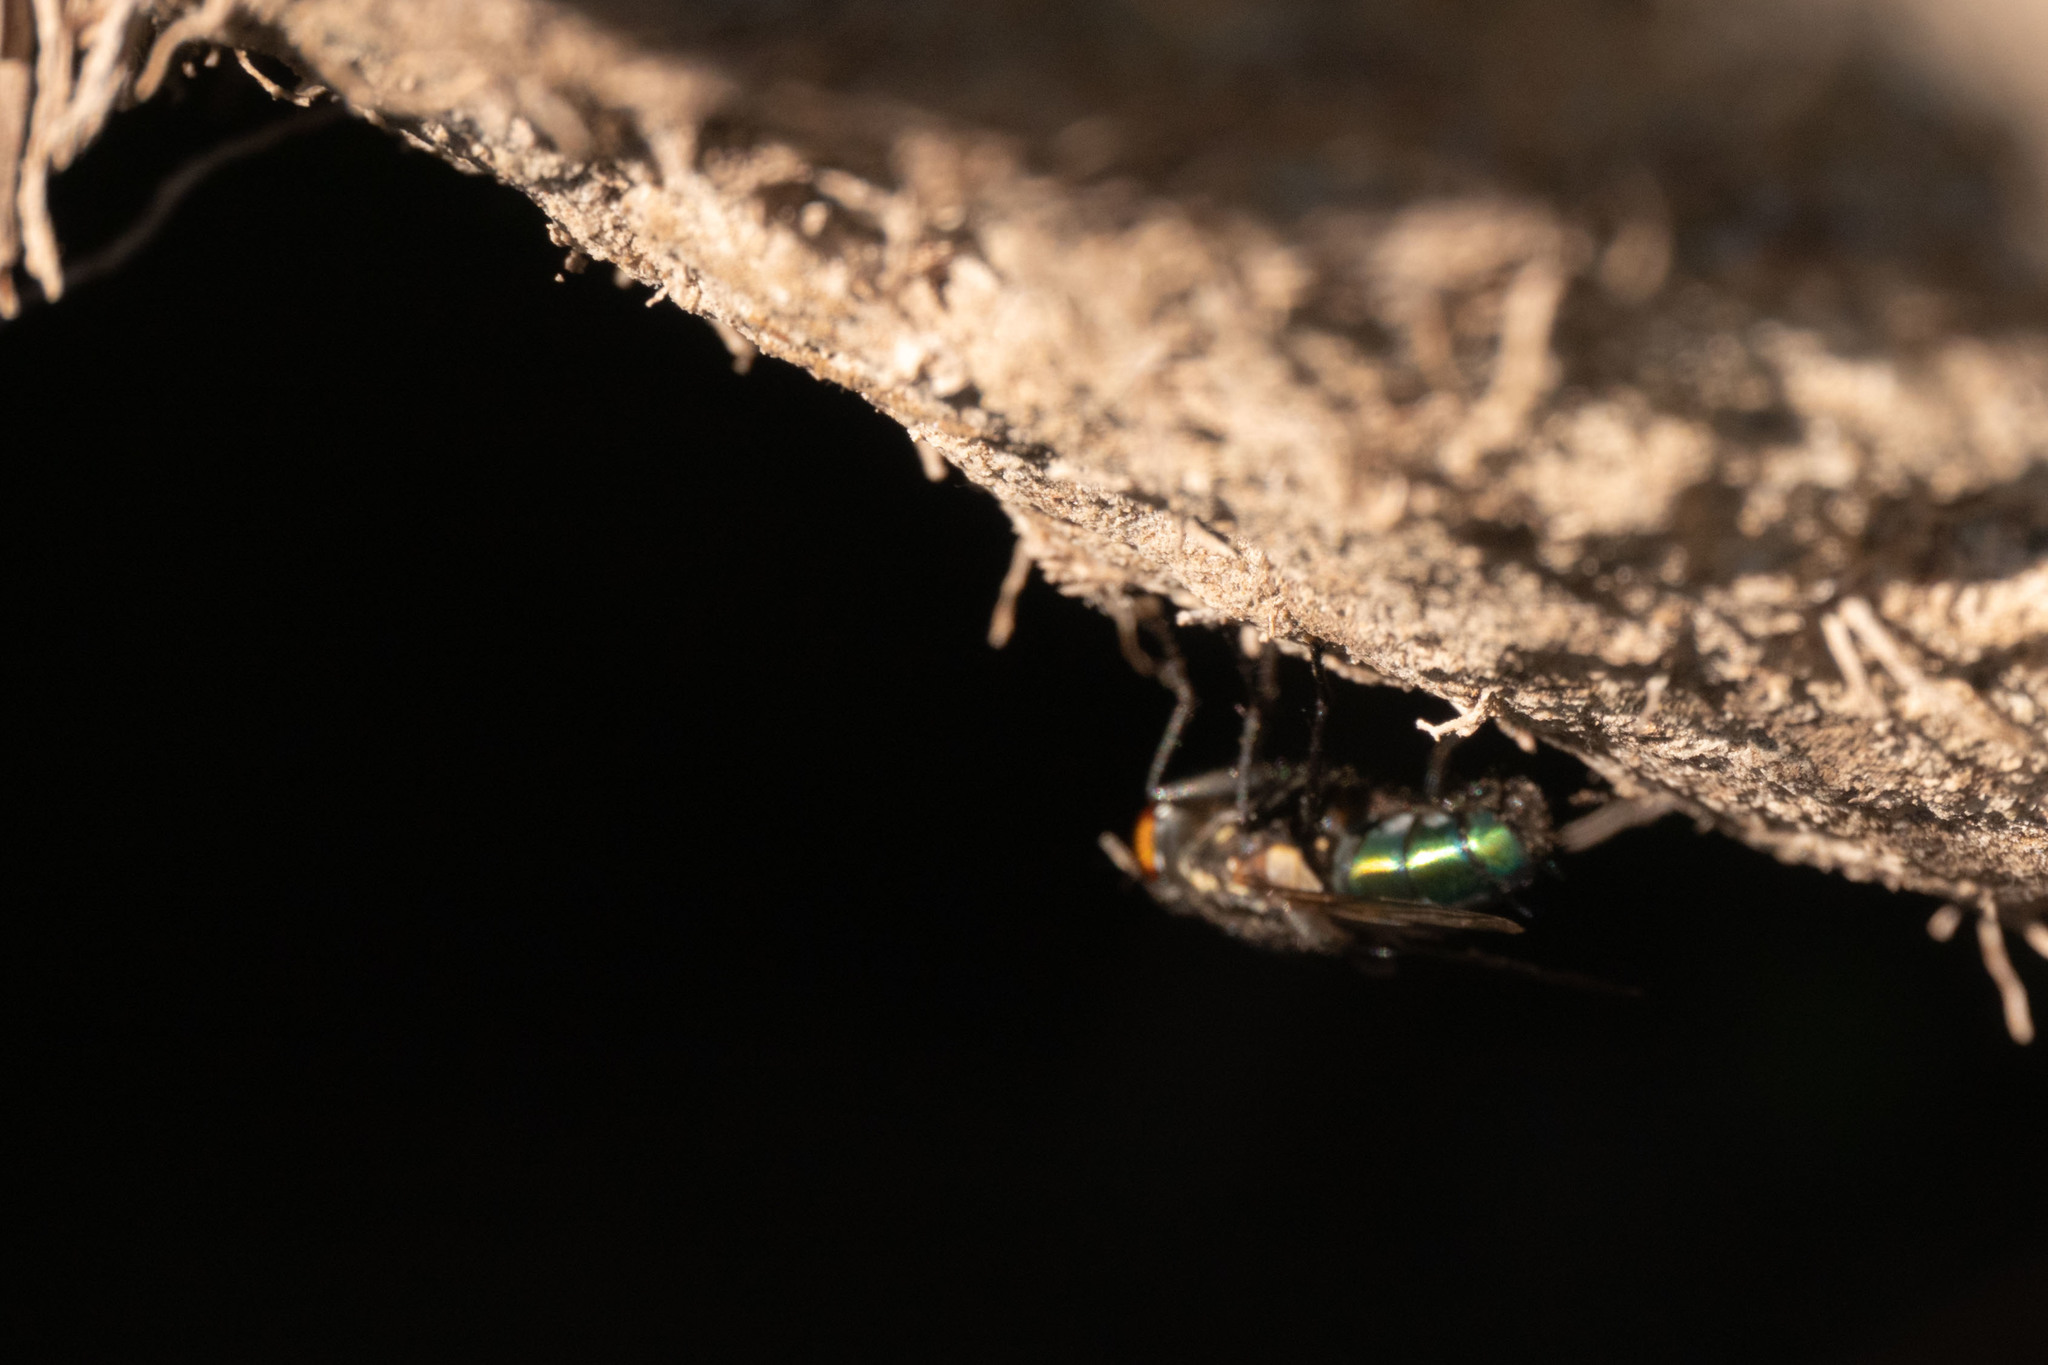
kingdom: Animalia
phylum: Arthropoda
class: Insecta
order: Diptera
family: Calliphoridae
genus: Sarconesia
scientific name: Sarconesia chlorogaster
